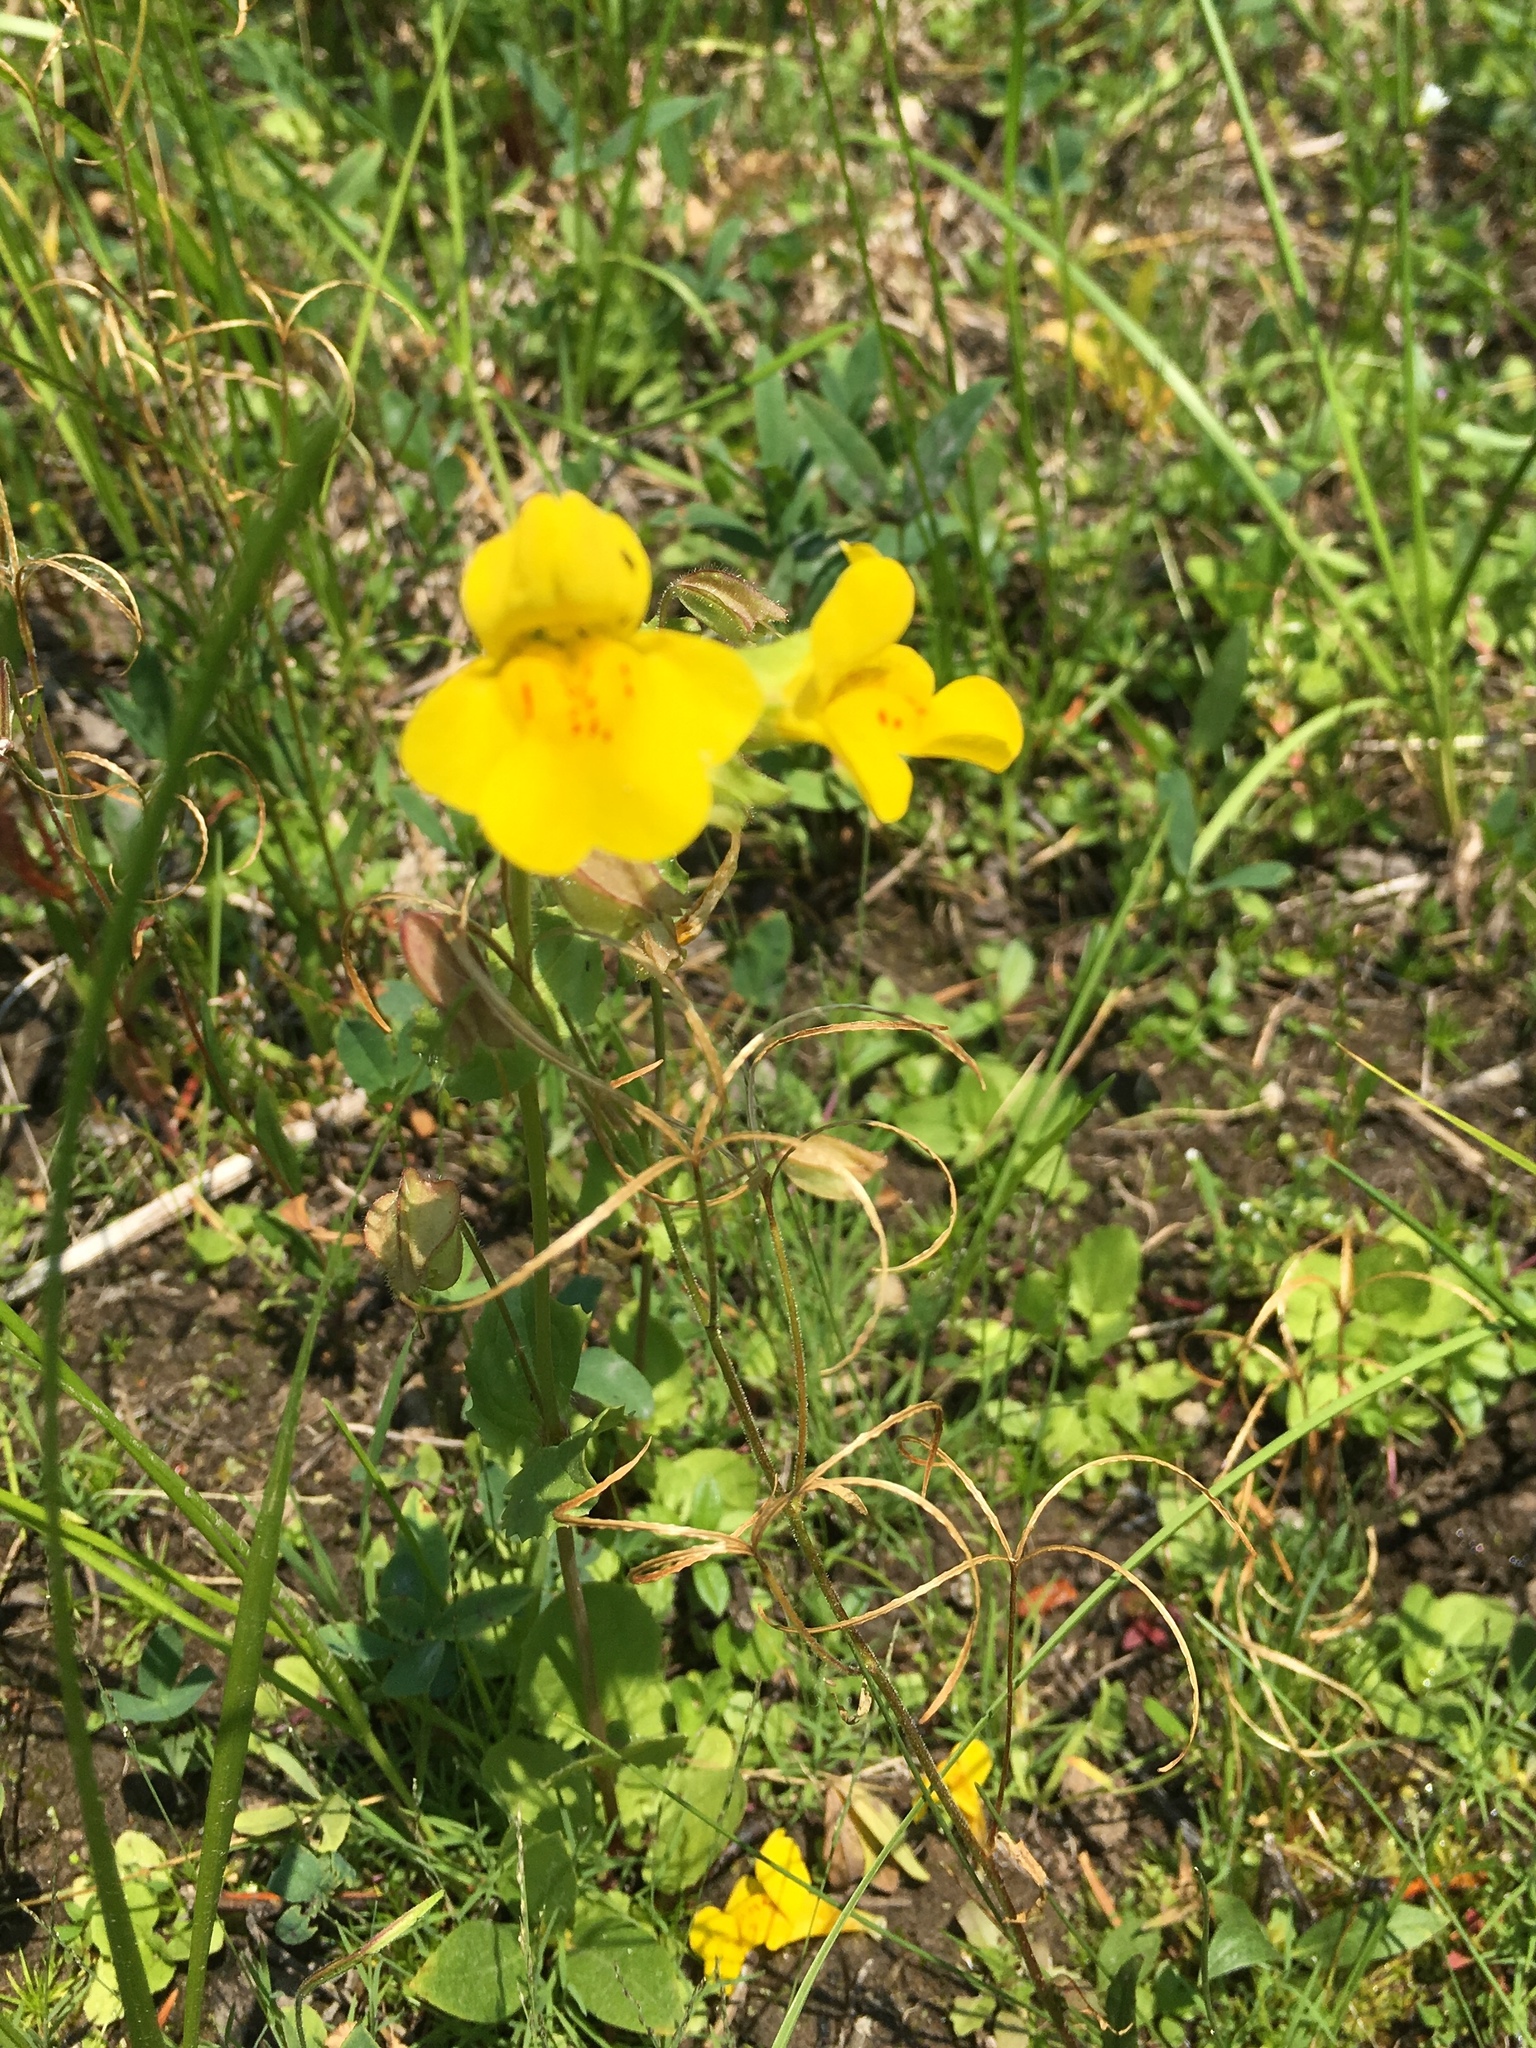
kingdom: Plantae
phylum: Tracheophyta
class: Magnoliopsida
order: Lamiales
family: Phrymaceae
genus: Erythranthe
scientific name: Erythranthe guttata
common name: Monkeyflower
